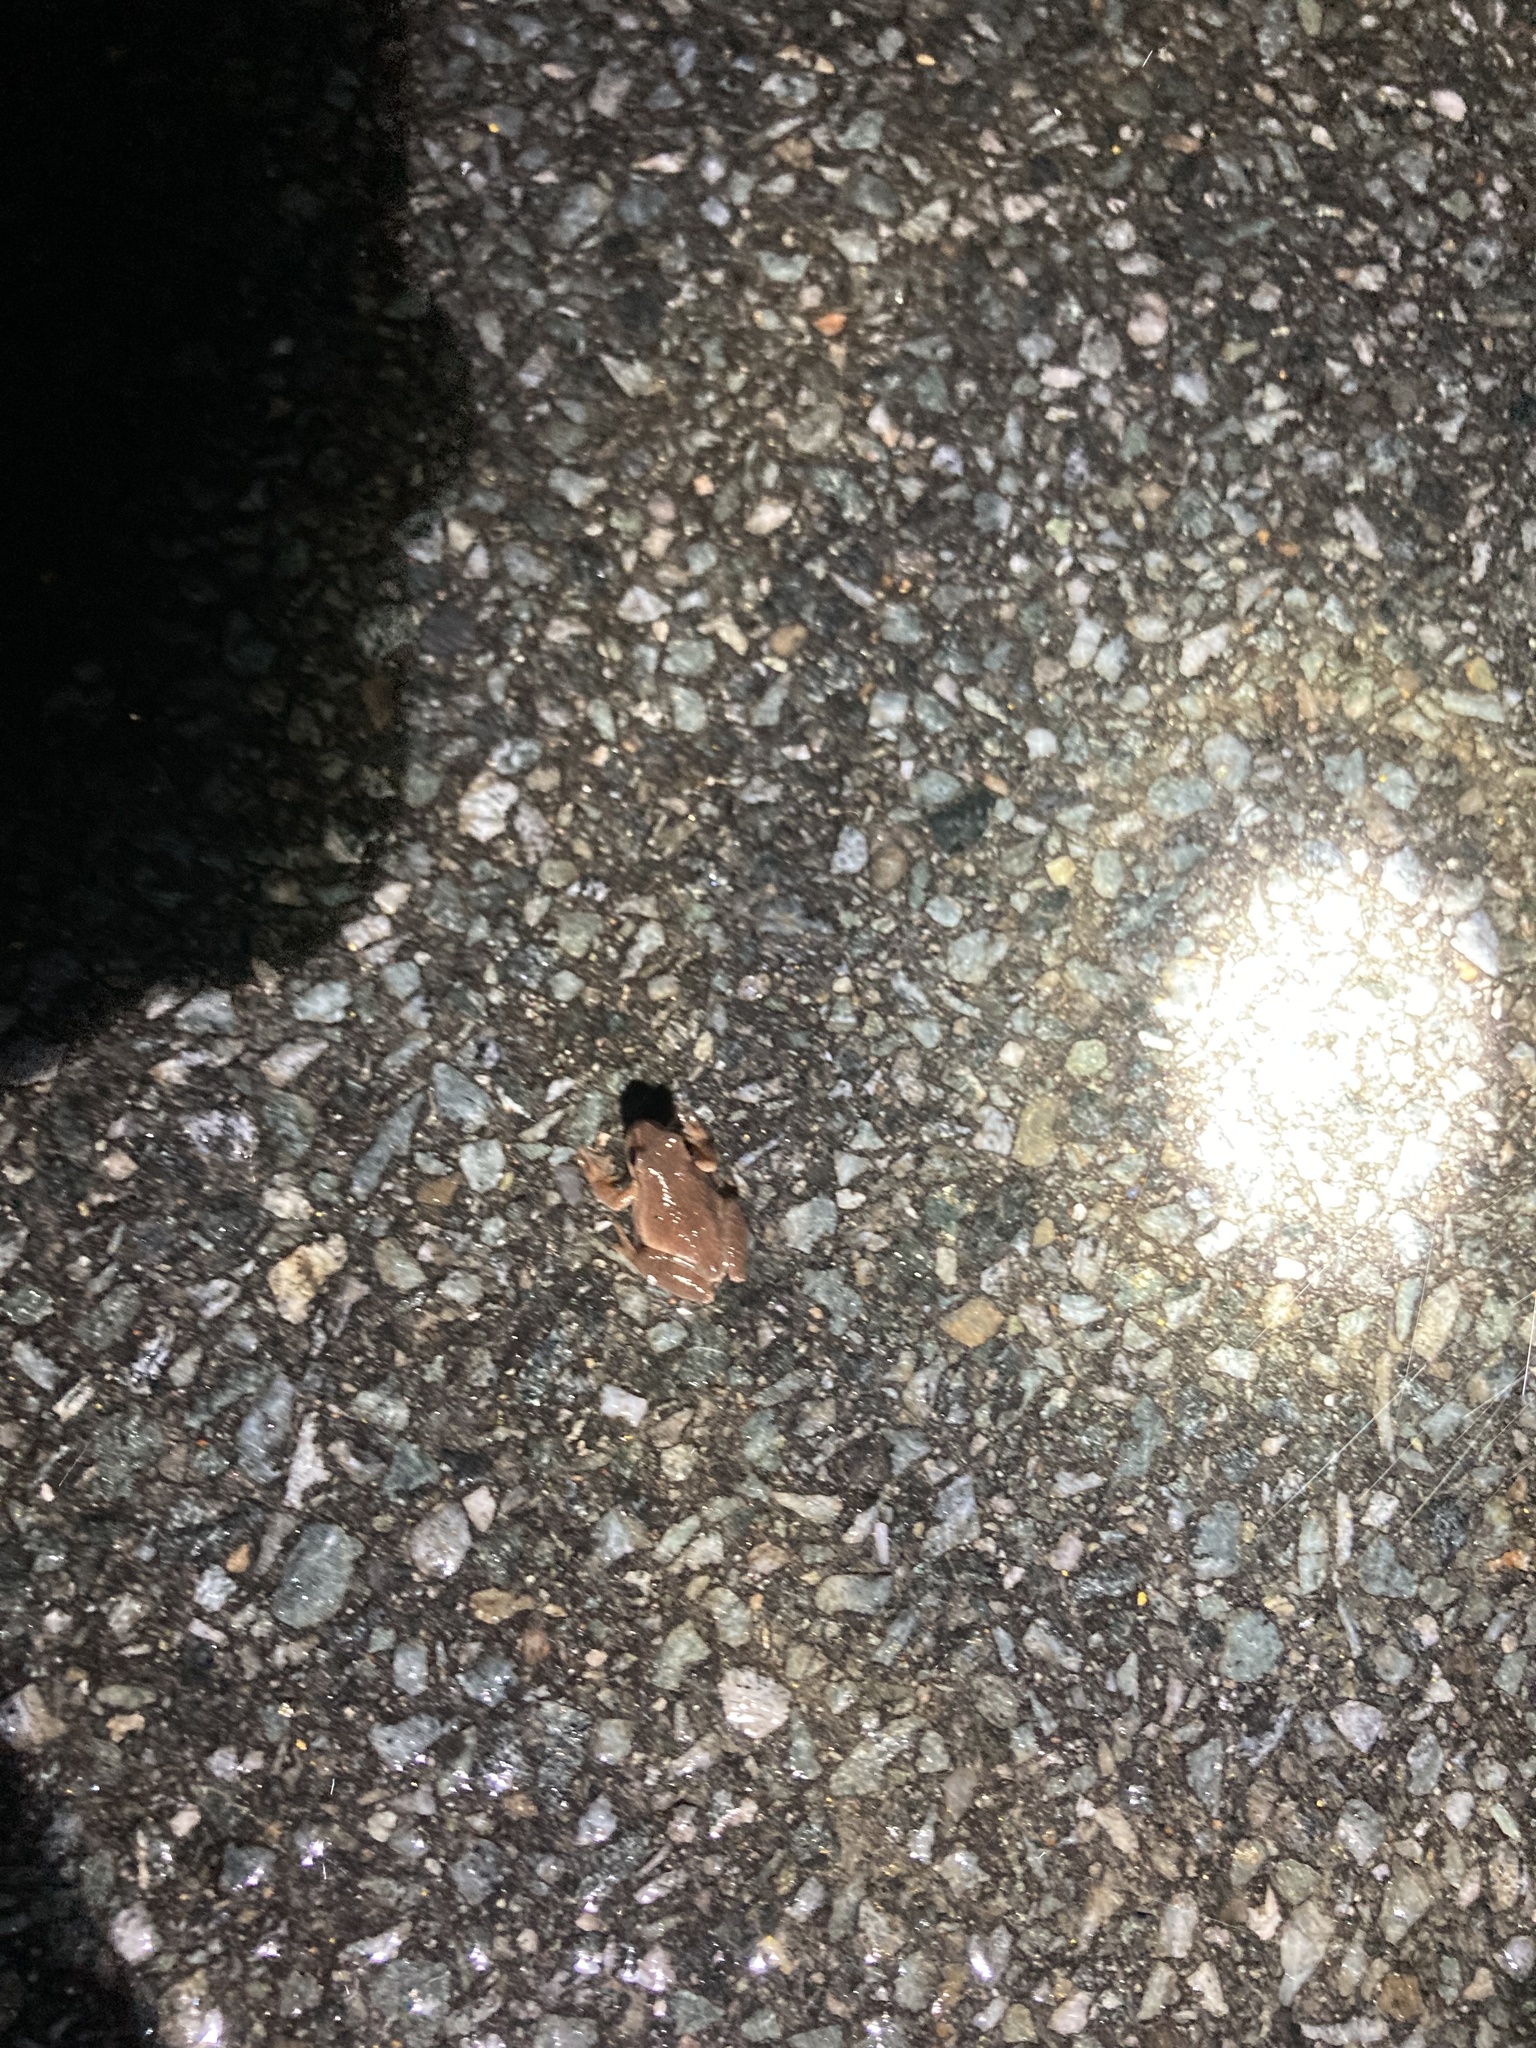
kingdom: Animalia
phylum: Chordata
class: Amphibia
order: Anura
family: Hylidae
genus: Pseudacris
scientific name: Pseudacris crucifer
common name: Spring peeper
